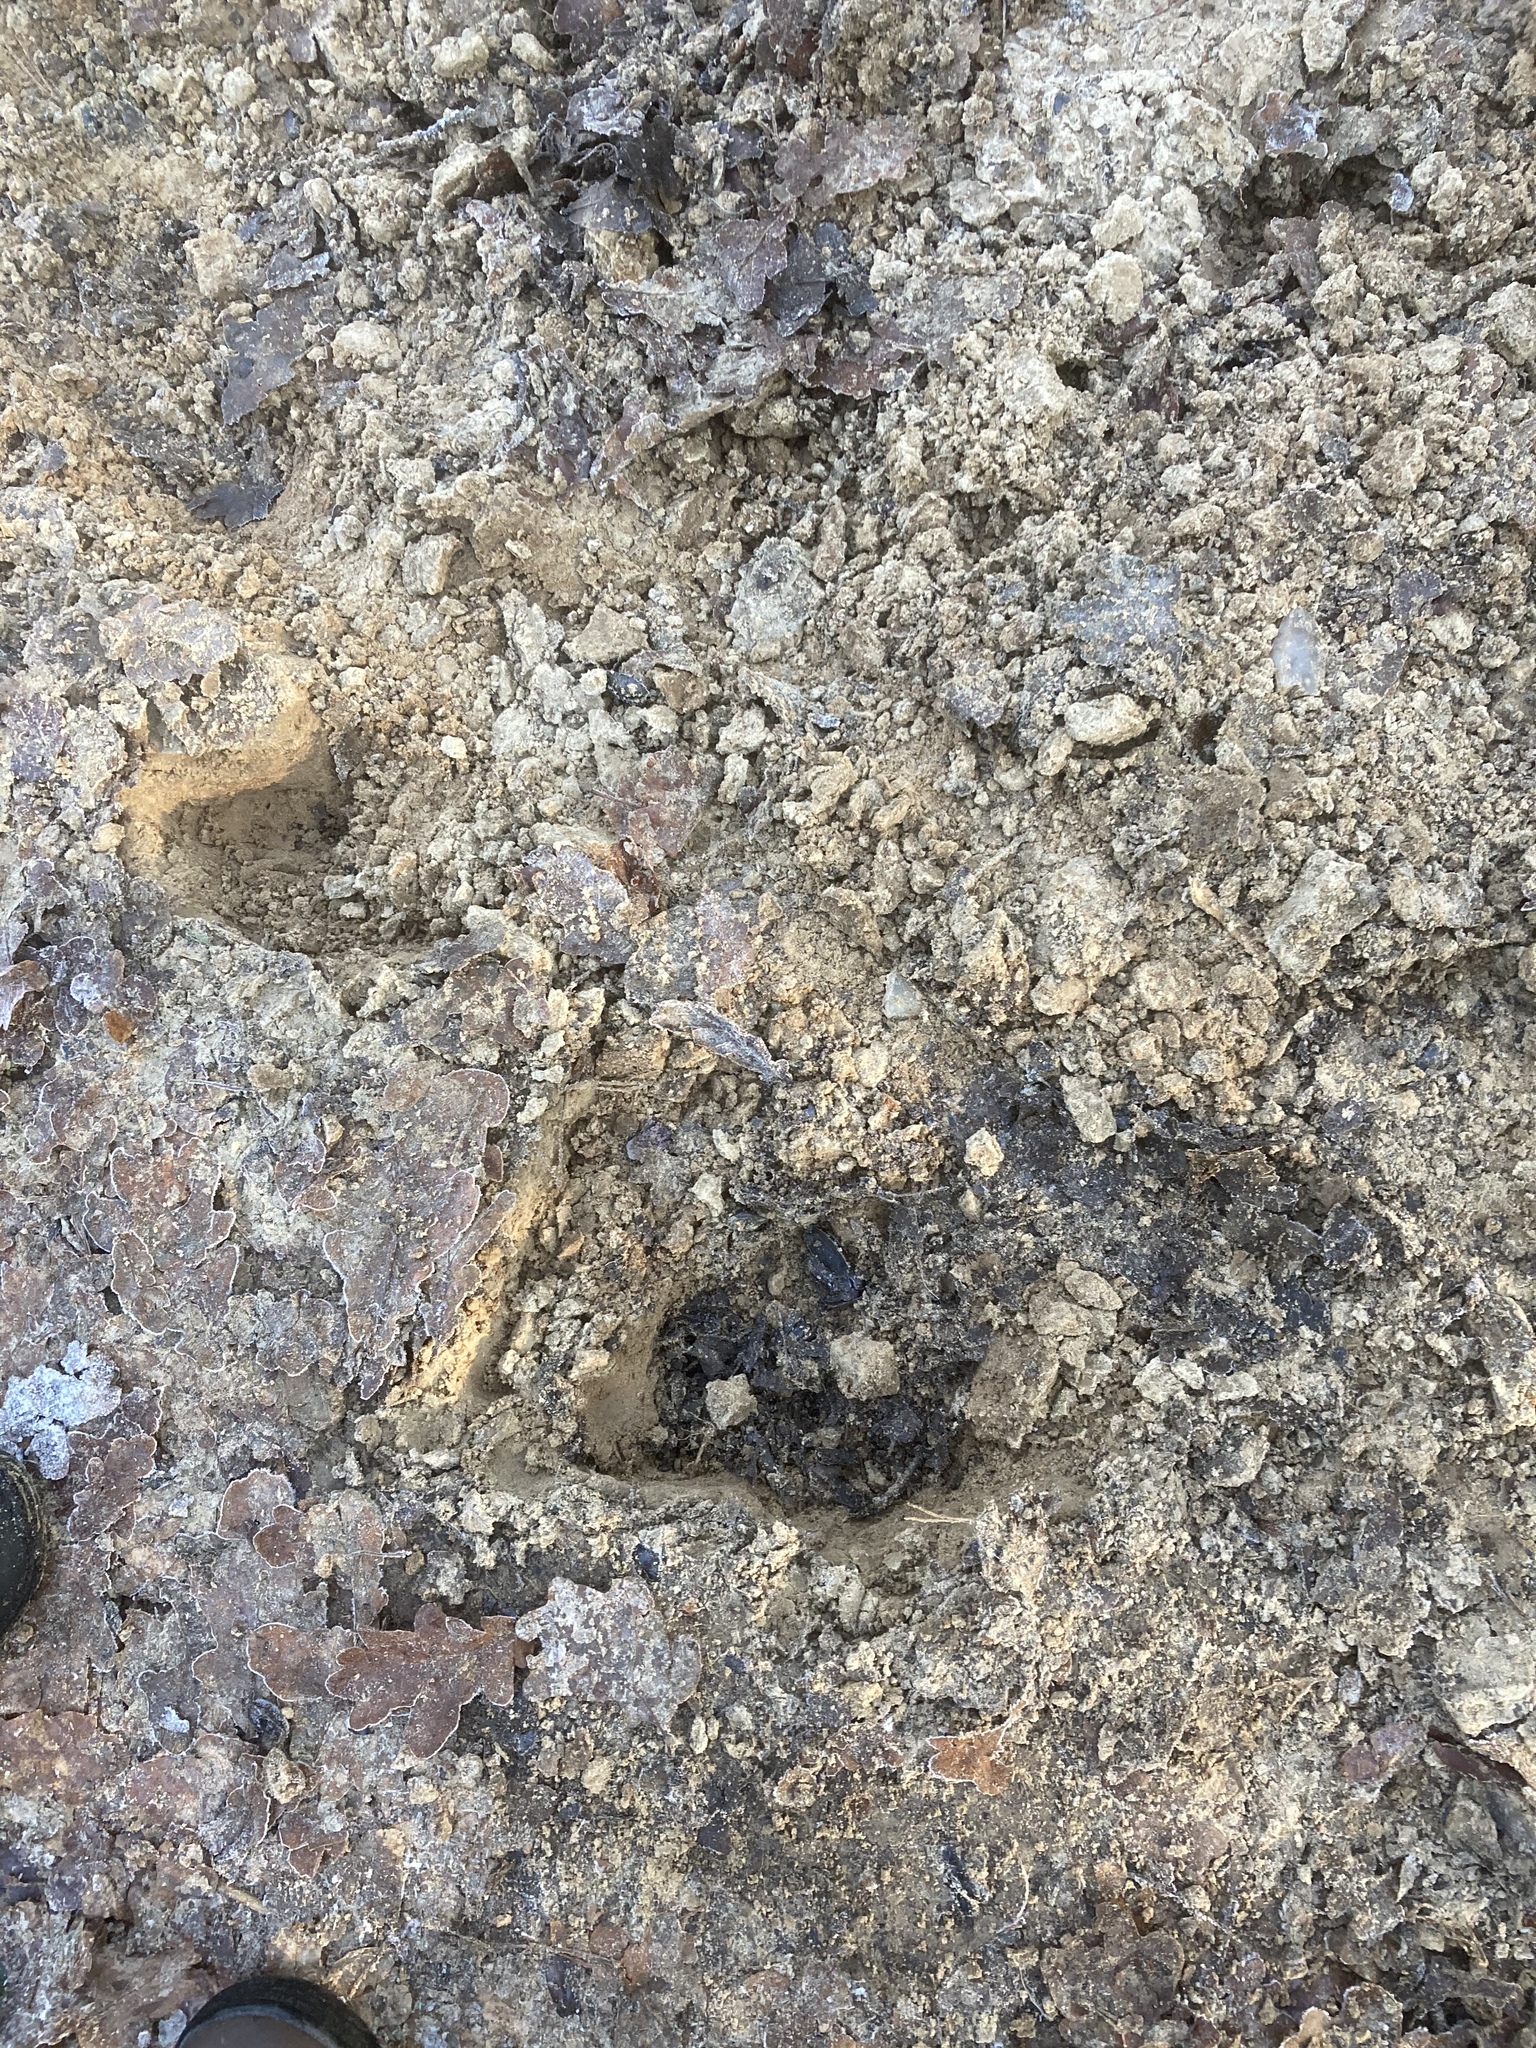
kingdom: Animalia
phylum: Chordata
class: Mammalia
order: Carnivora
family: Mustelidae
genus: Meles
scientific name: Meles meles
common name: Eurasian badger
